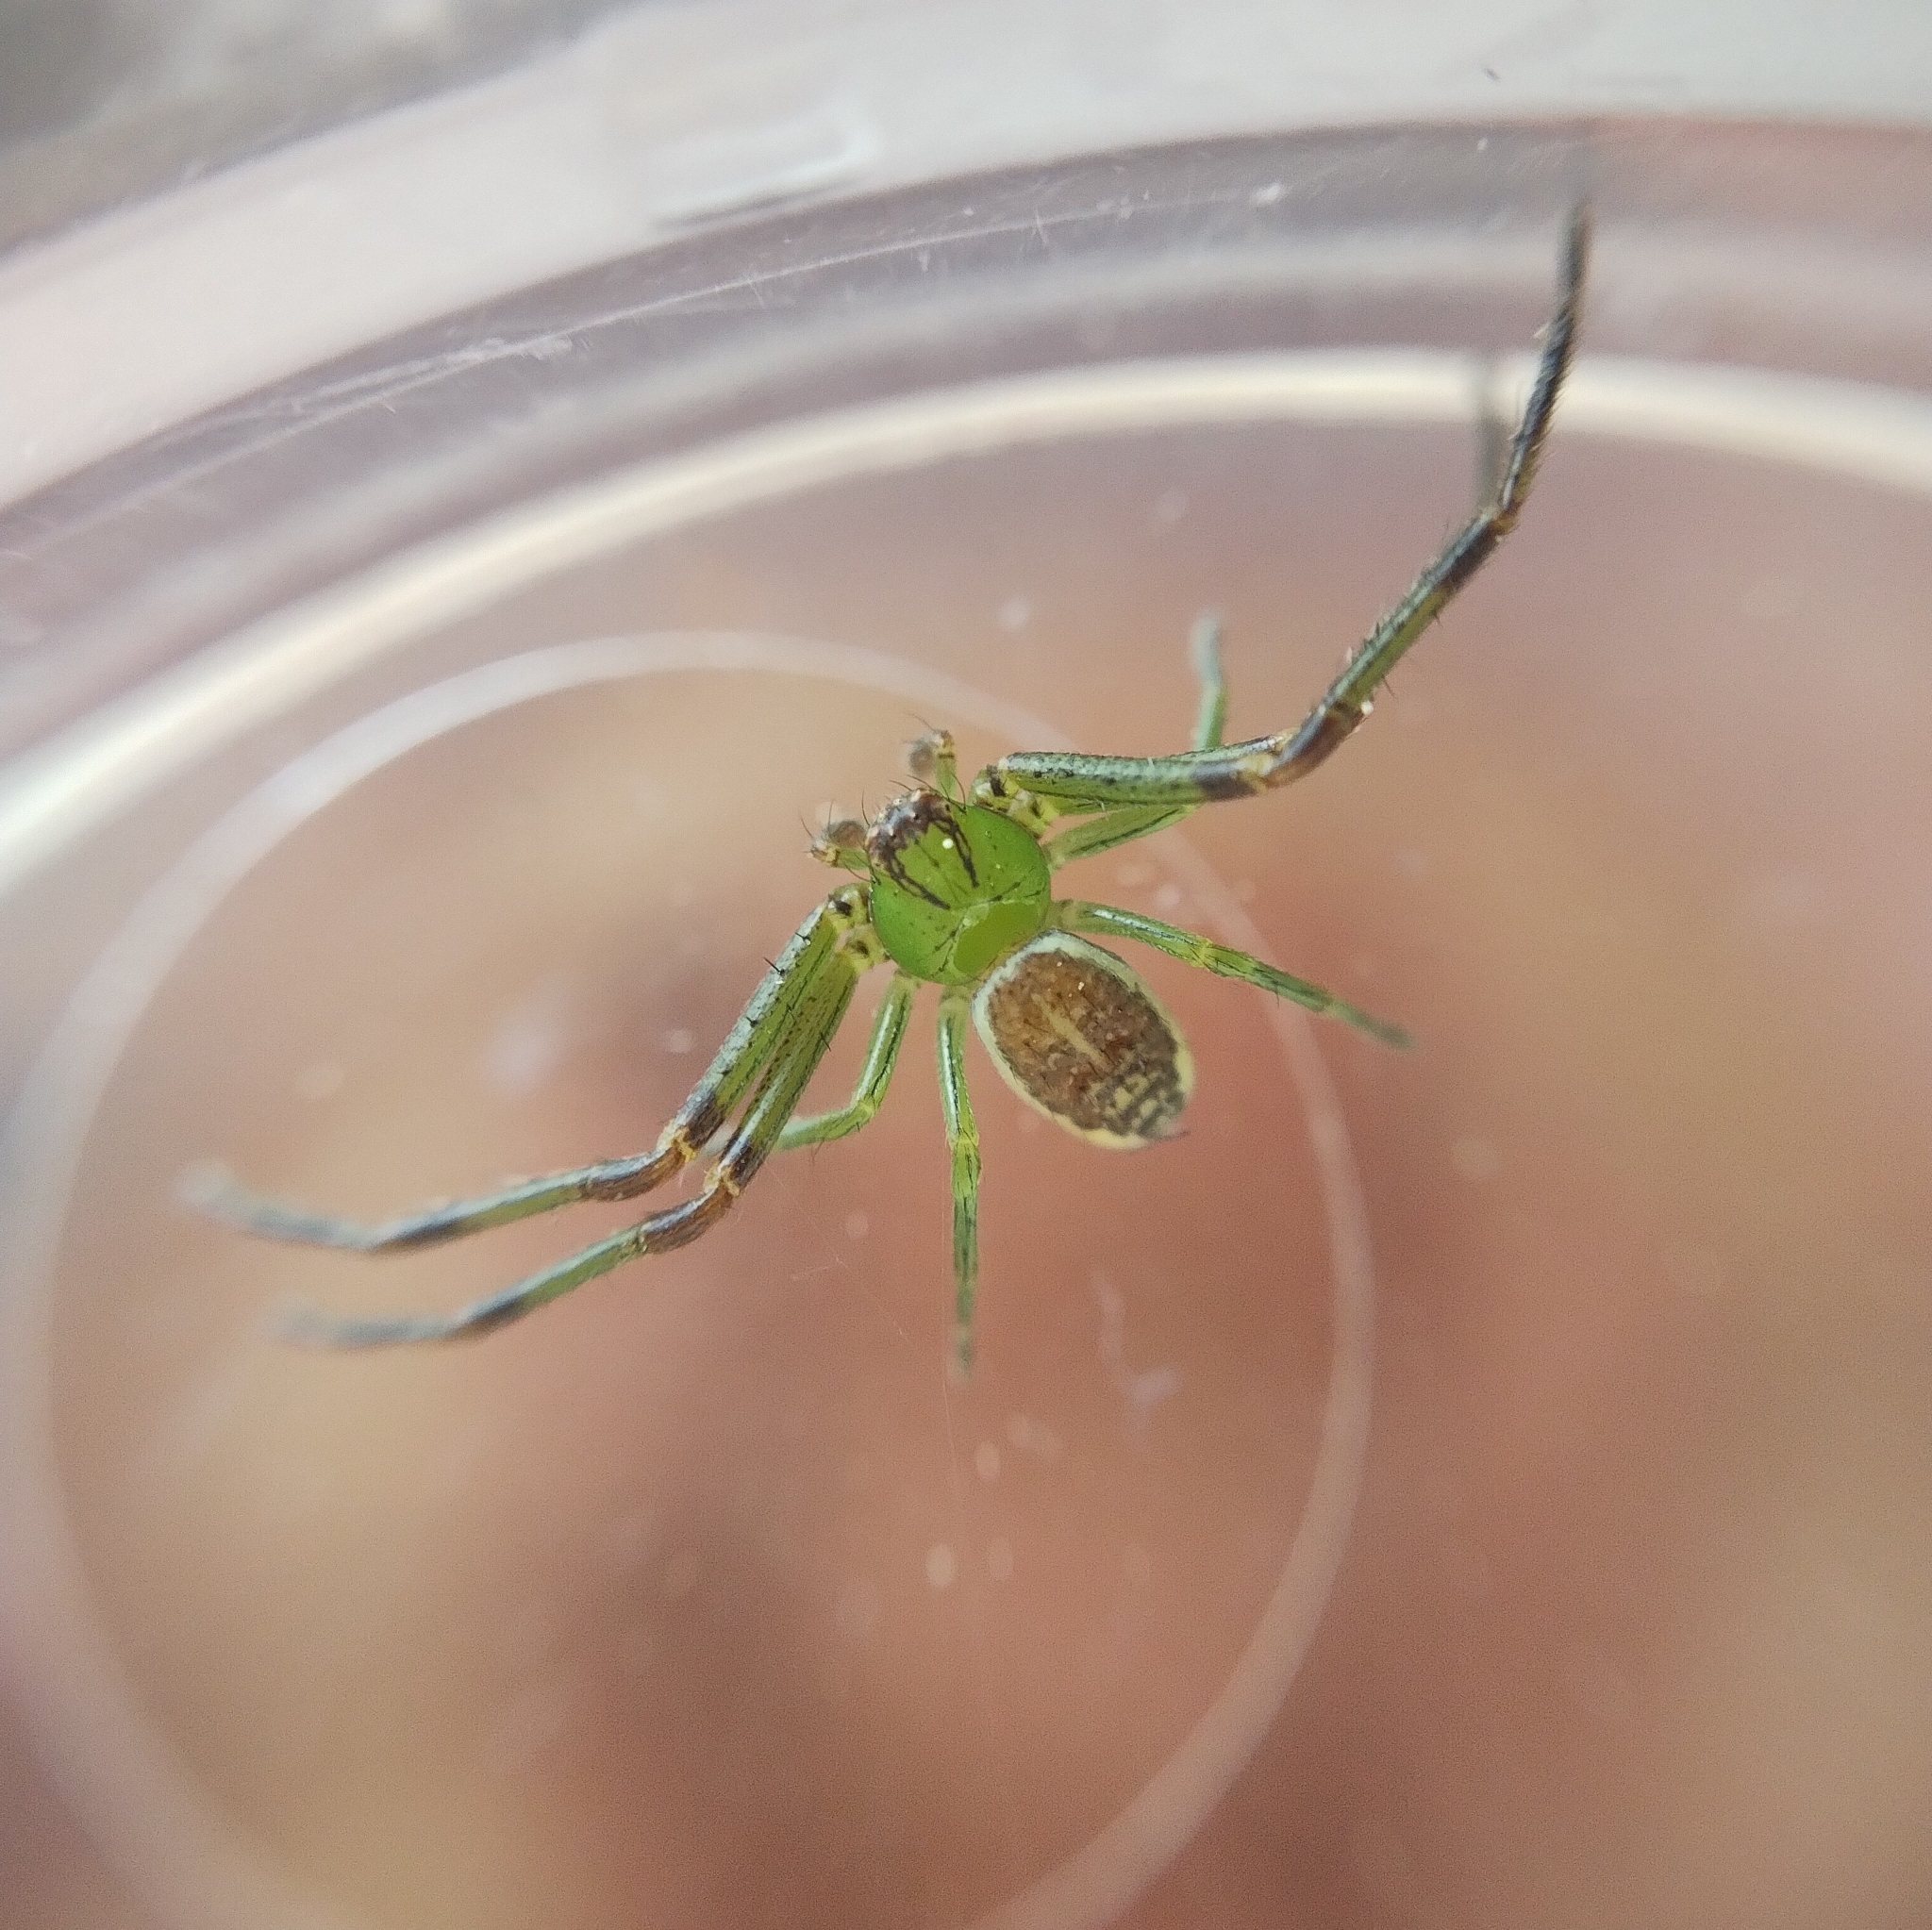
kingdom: Animalia
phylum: Arthropoda
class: Arachnida
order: Araneae
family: Thomisidae
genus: Diaea
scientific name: Diaea dorsata
